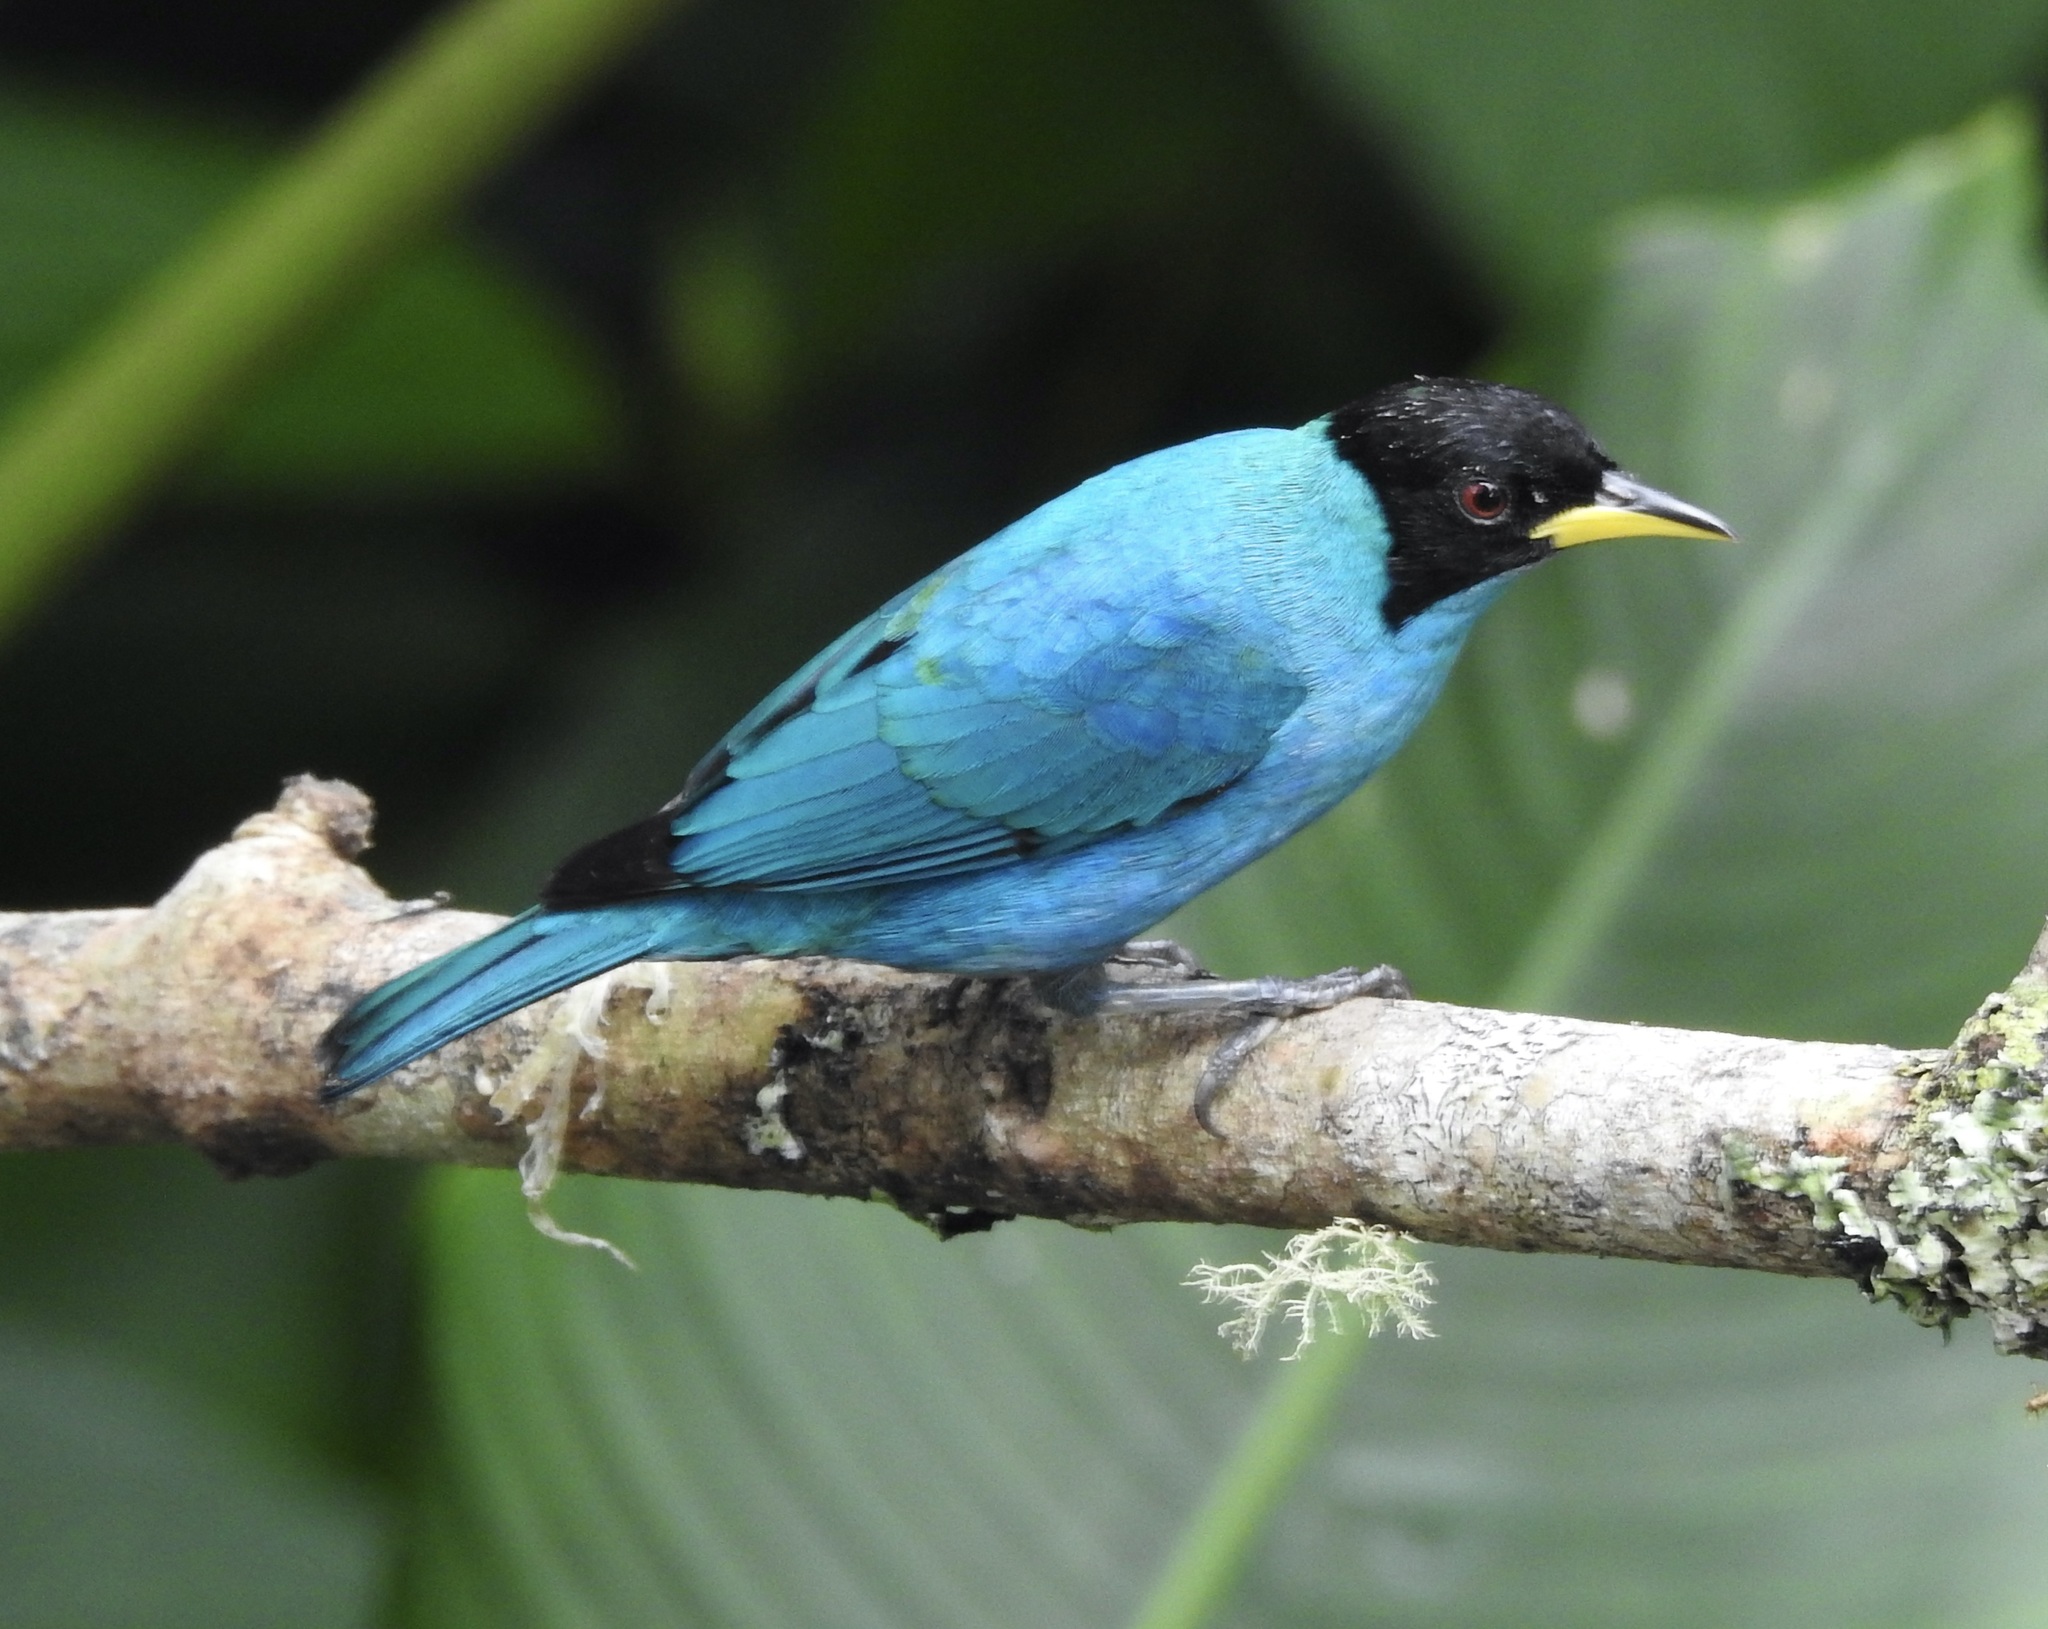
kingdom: Animalia
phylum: Chordata
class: Aves
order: Passeriformes
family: Thraupidae
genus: Chlorophanes
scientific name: Chlorophanes spiza
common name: Green honeycreeper
